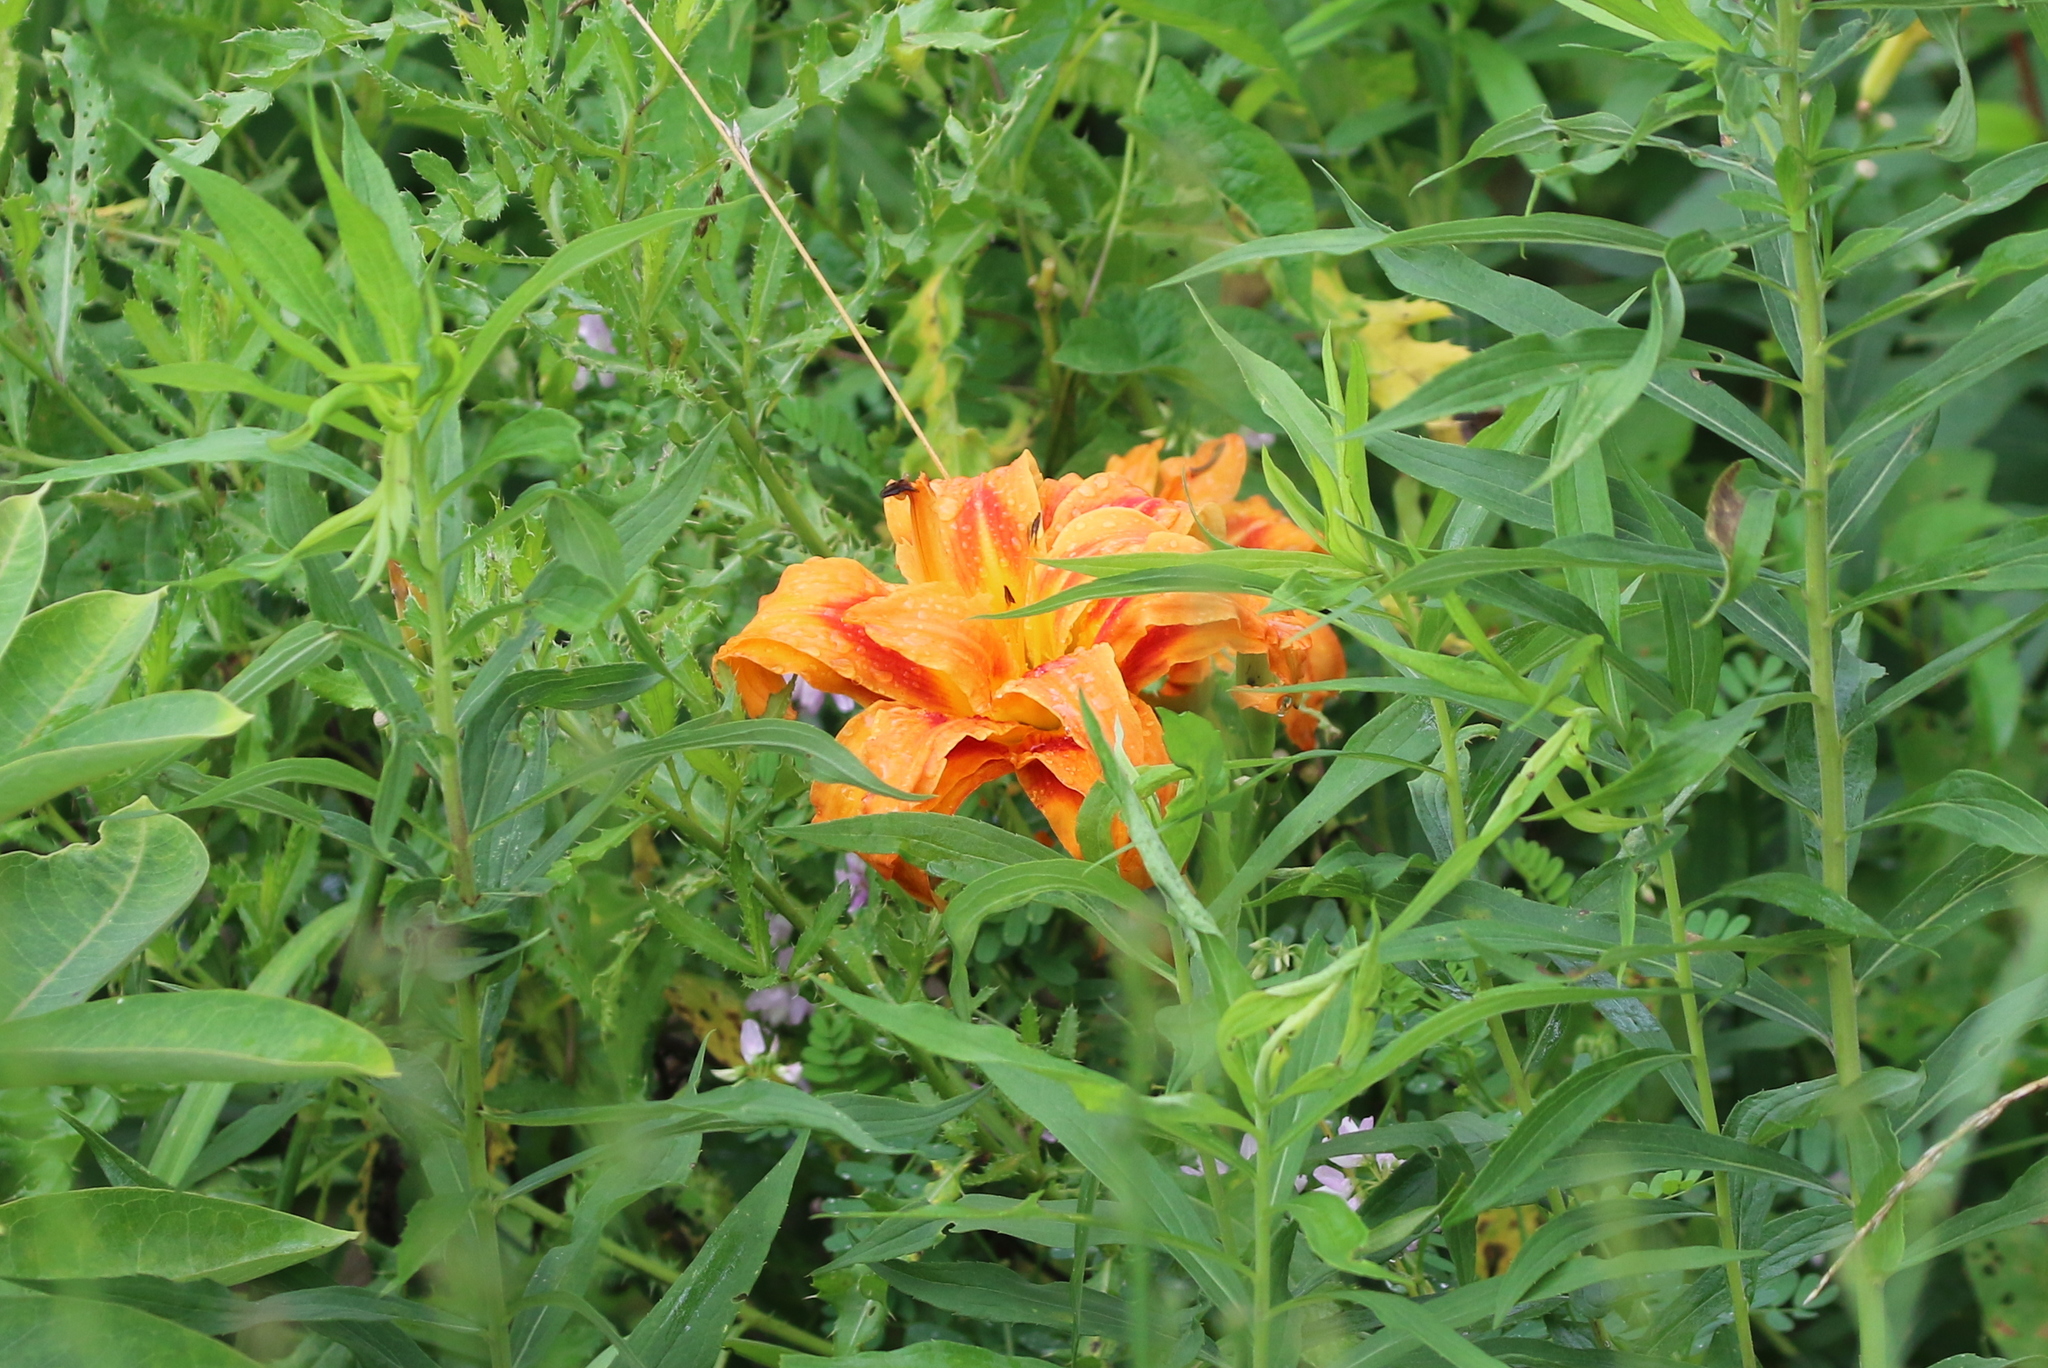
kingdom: Plantae
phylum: Tracheophyta
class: Liliopsida
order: Asparagales
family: Asphodelaceae
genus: Hemerocallis
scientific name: Hemerocallis fulva
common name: Orange day-lily
